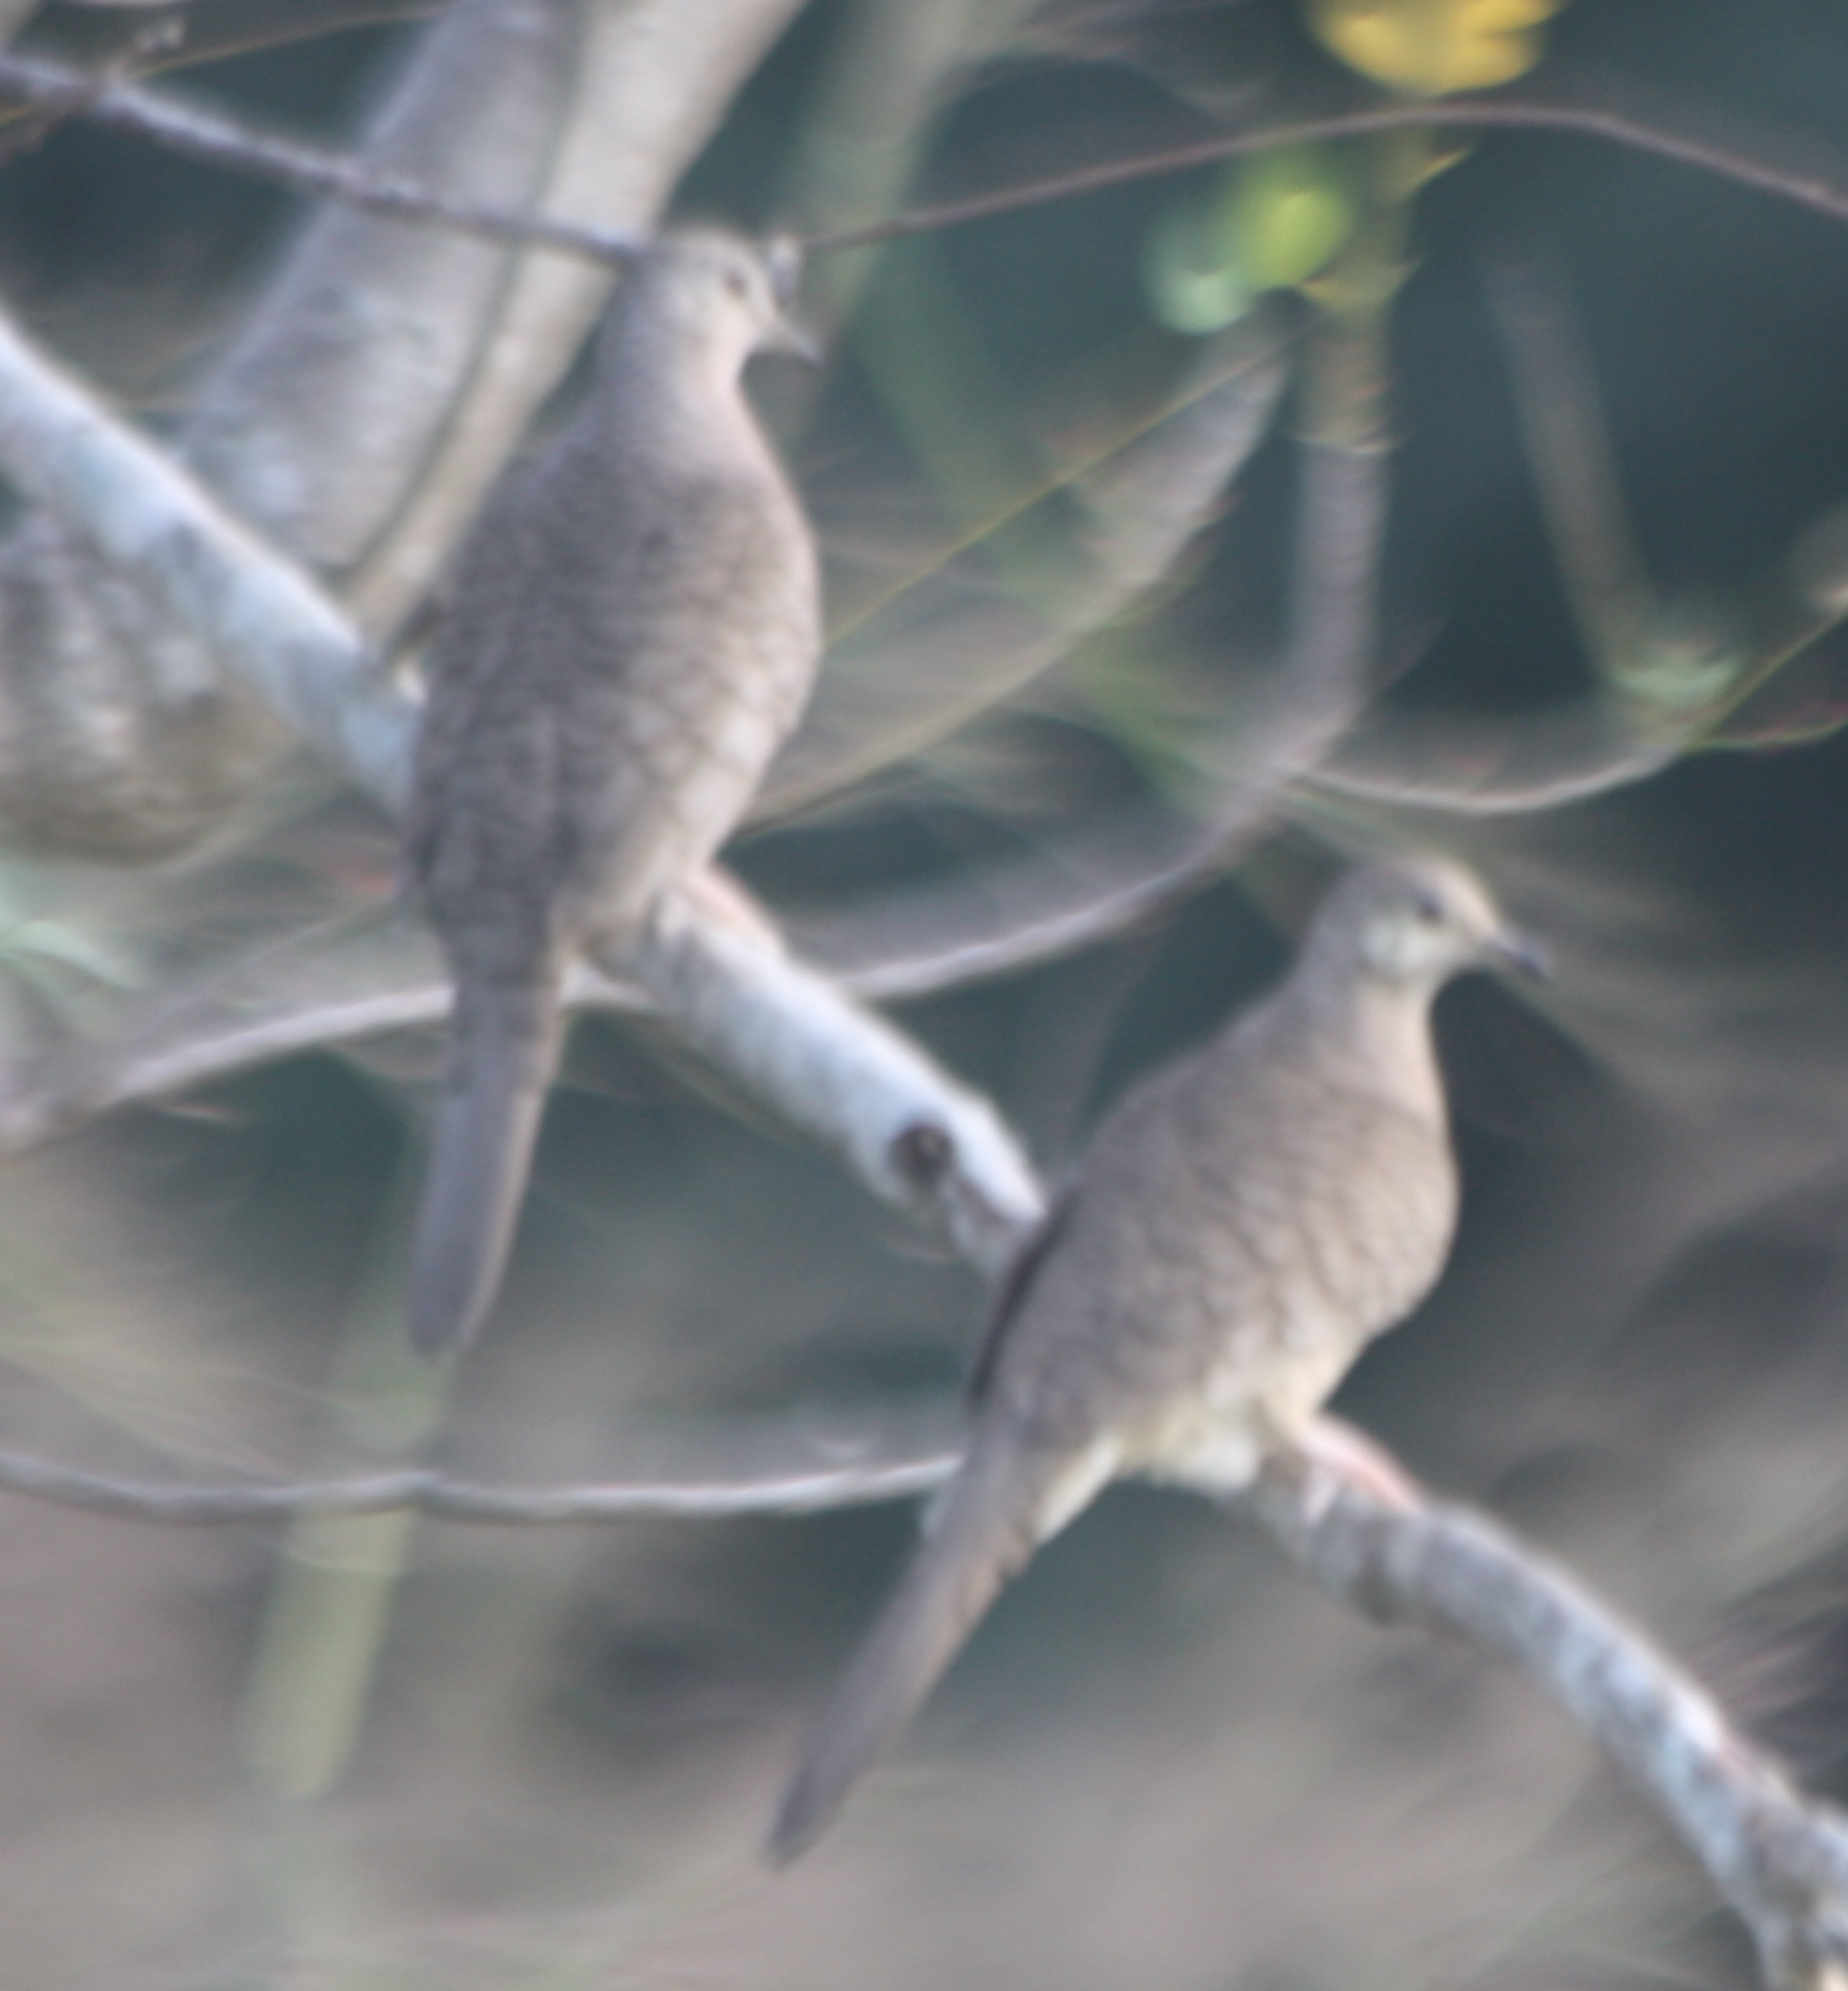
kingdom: Animalia
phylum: Chordata
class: Aves
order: Columbiformes
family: Columbidae
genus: Columbina
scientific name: Columbina inca
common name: Inca dove
